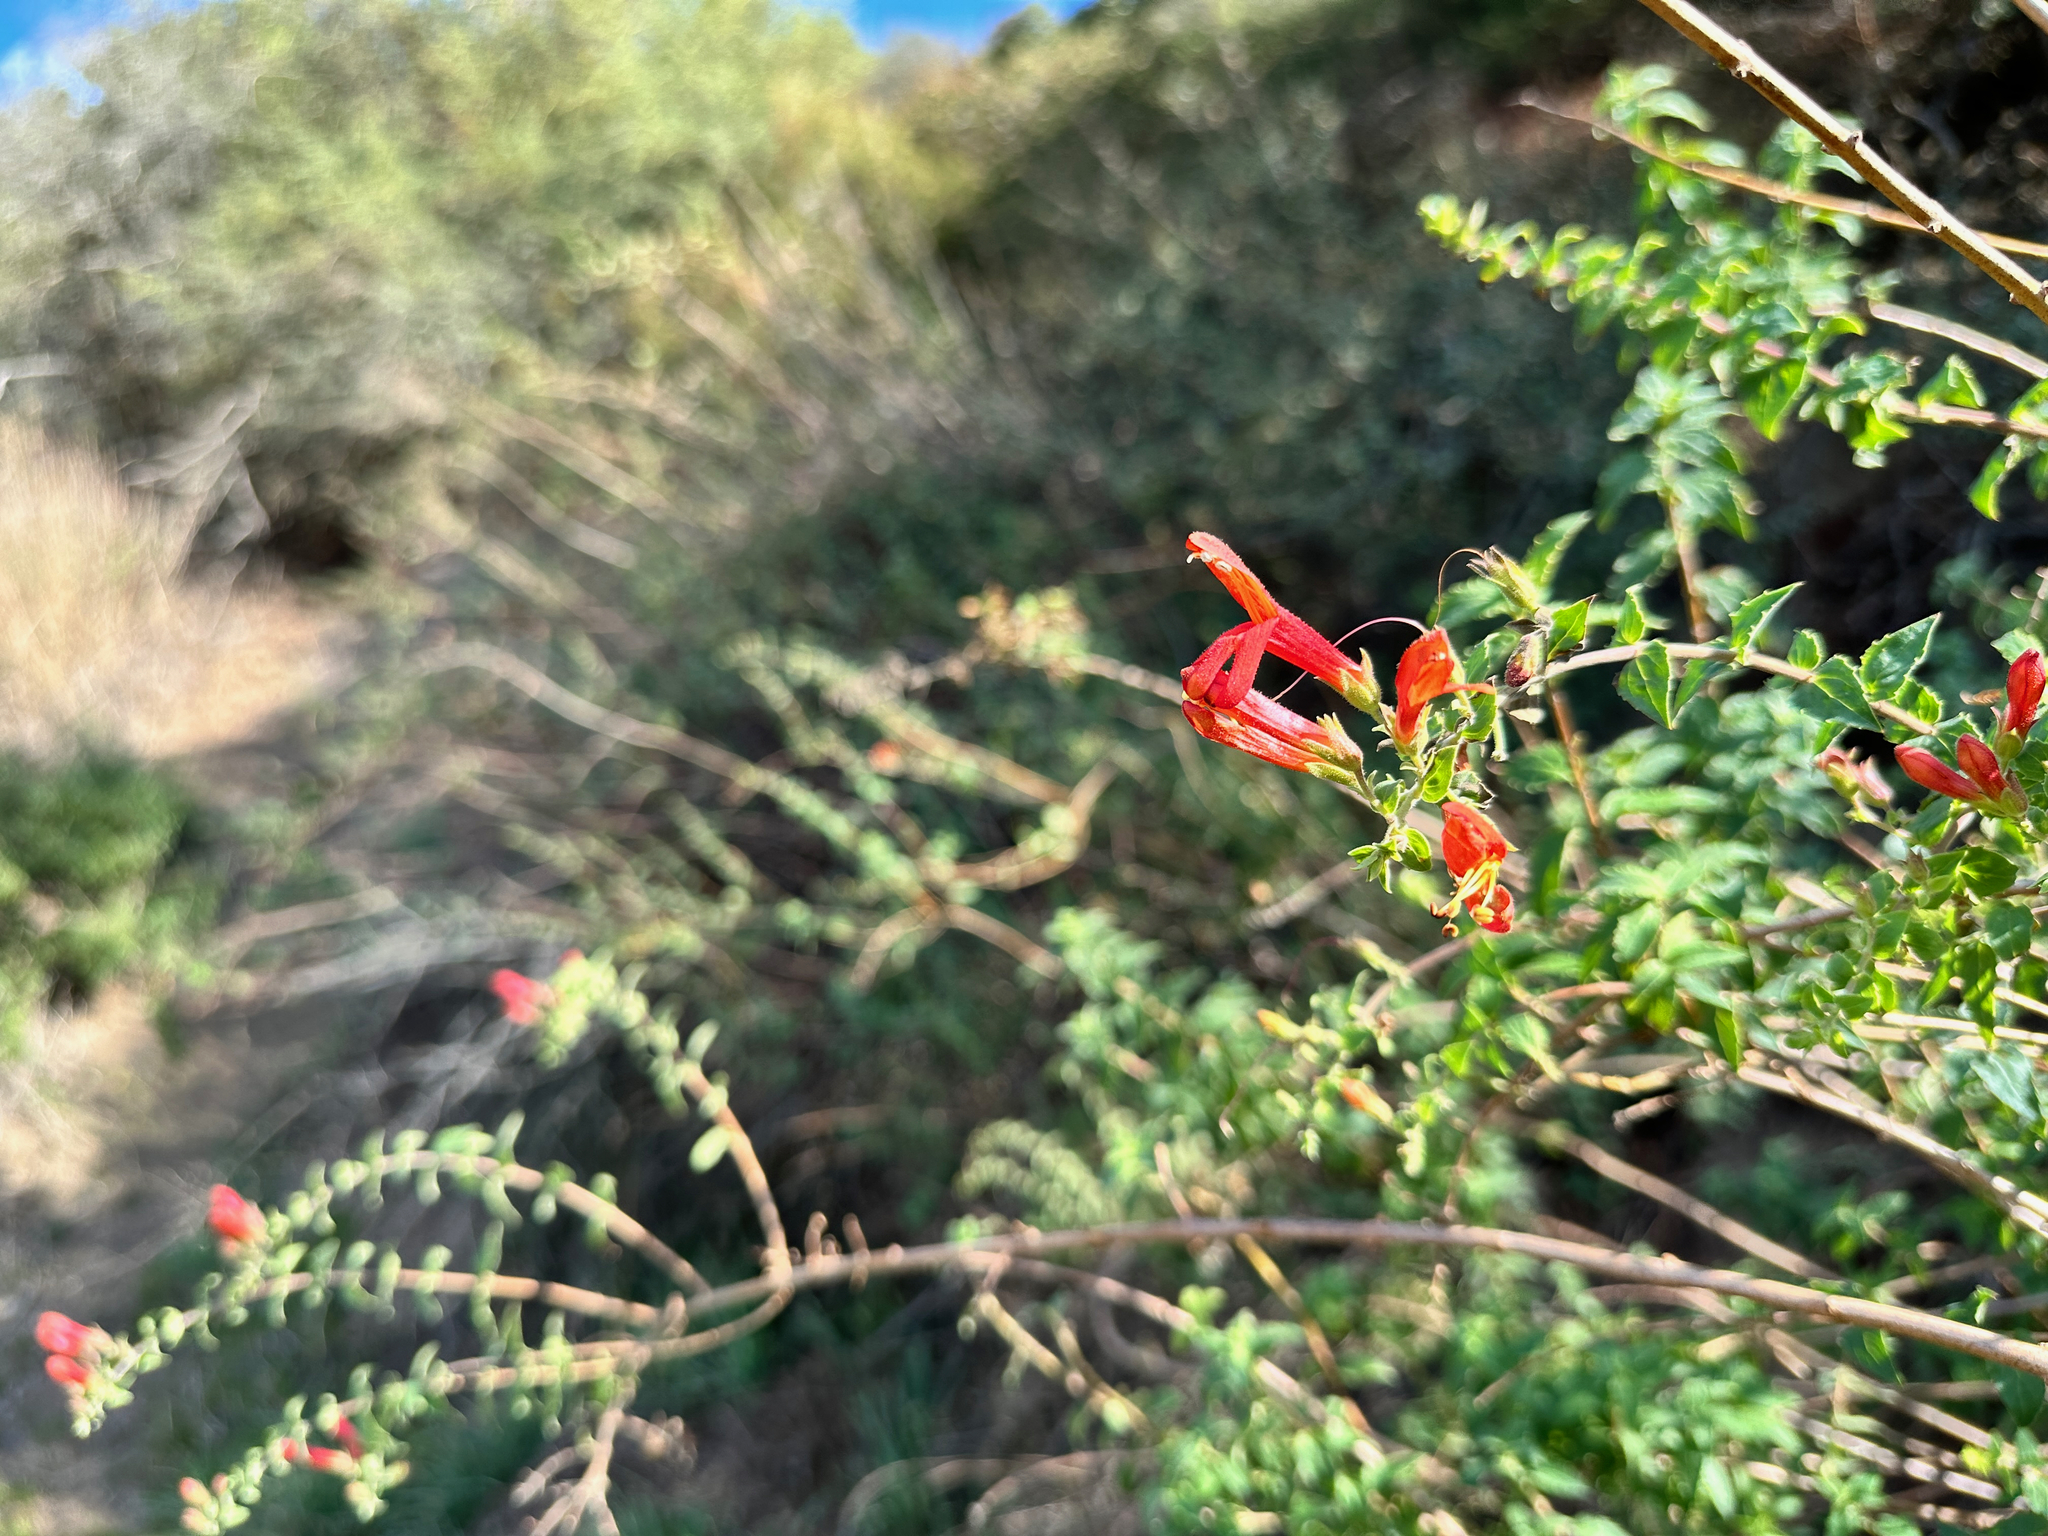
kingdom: Plantae
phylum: Tracheophyta
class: Magnoliopsida
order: Lamiales
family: Plantaginaceae
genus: Keckiella
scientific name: Keckiella cordifolia
